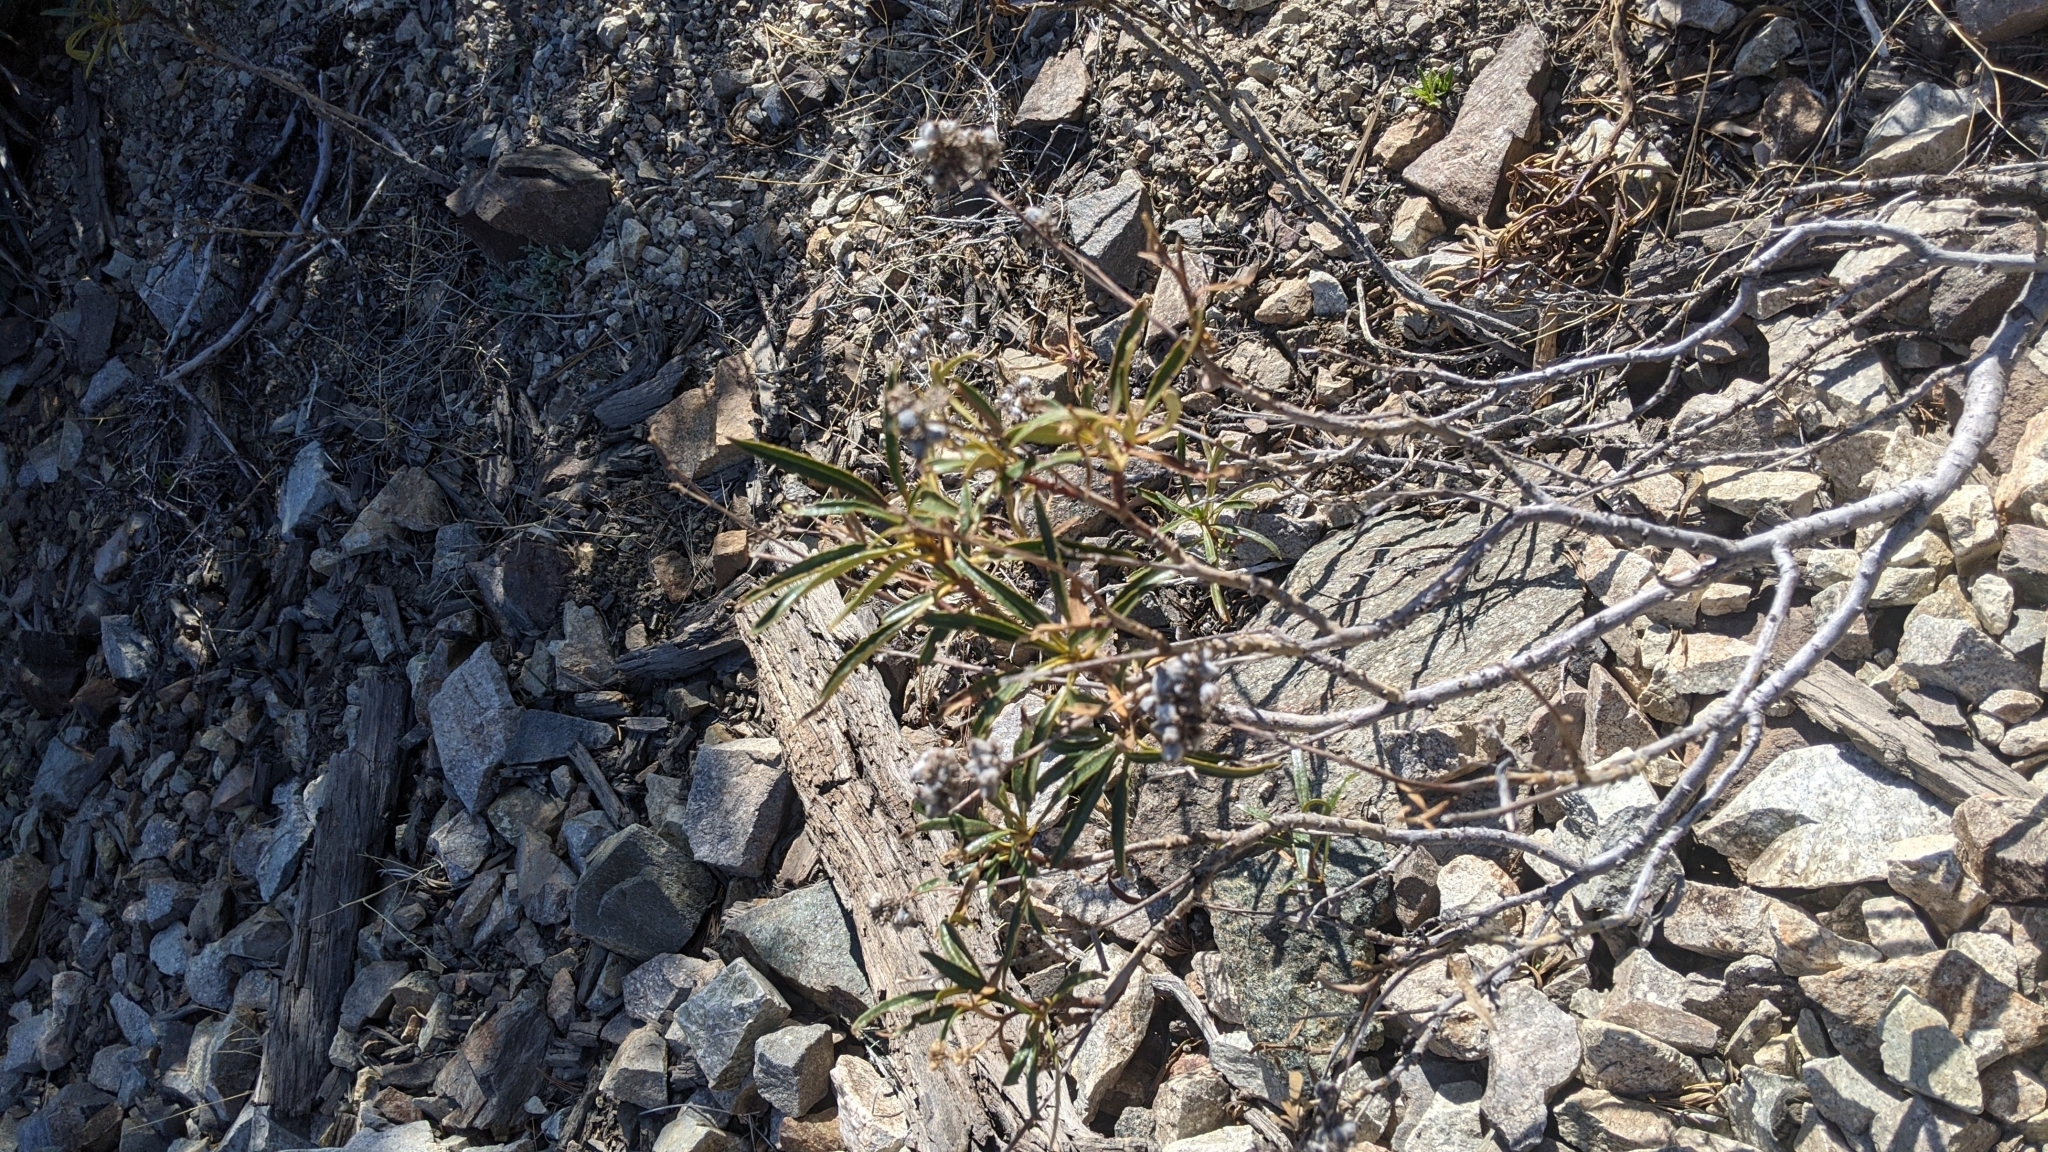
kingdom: Plantae
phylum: Tracheophyta
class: Magnoliopsida
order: Boraginales
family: Namaceae
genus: Eriodictyon
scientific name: Eriodictyon trichocalyx
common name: Hairy yerba-santa
